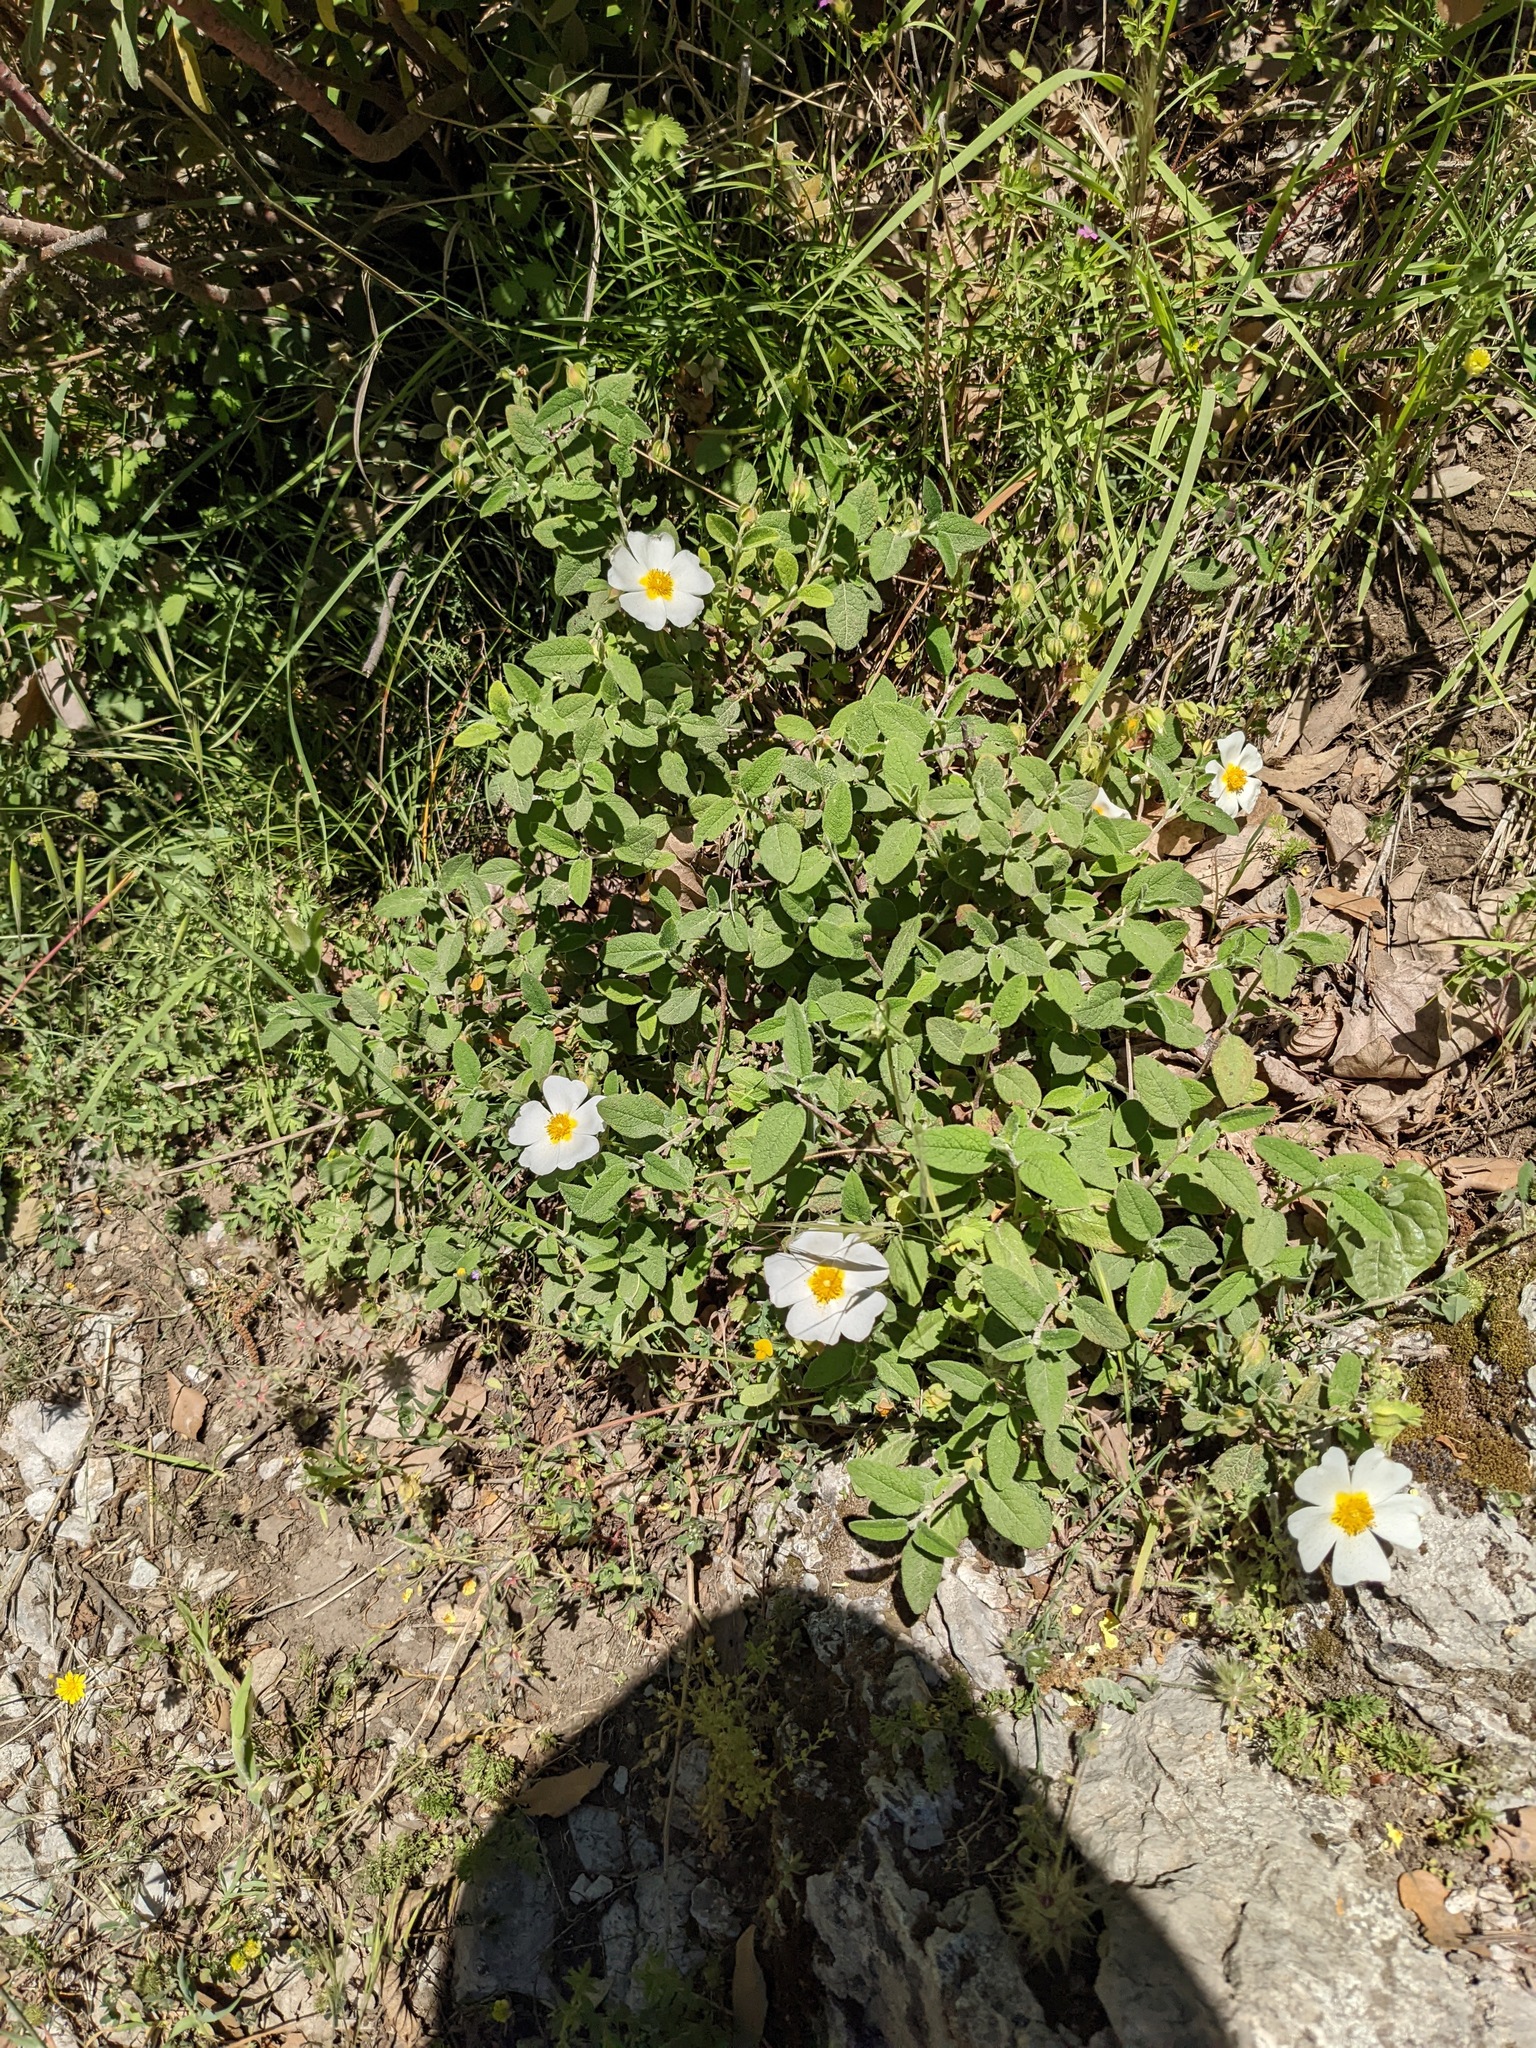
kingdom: Plantae
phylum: Tracheophyta
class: Magnoliopsida
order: Malvales
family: Cistaceae
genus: Cistus
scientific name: Cistus salviifolius
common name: Salvia cistus
